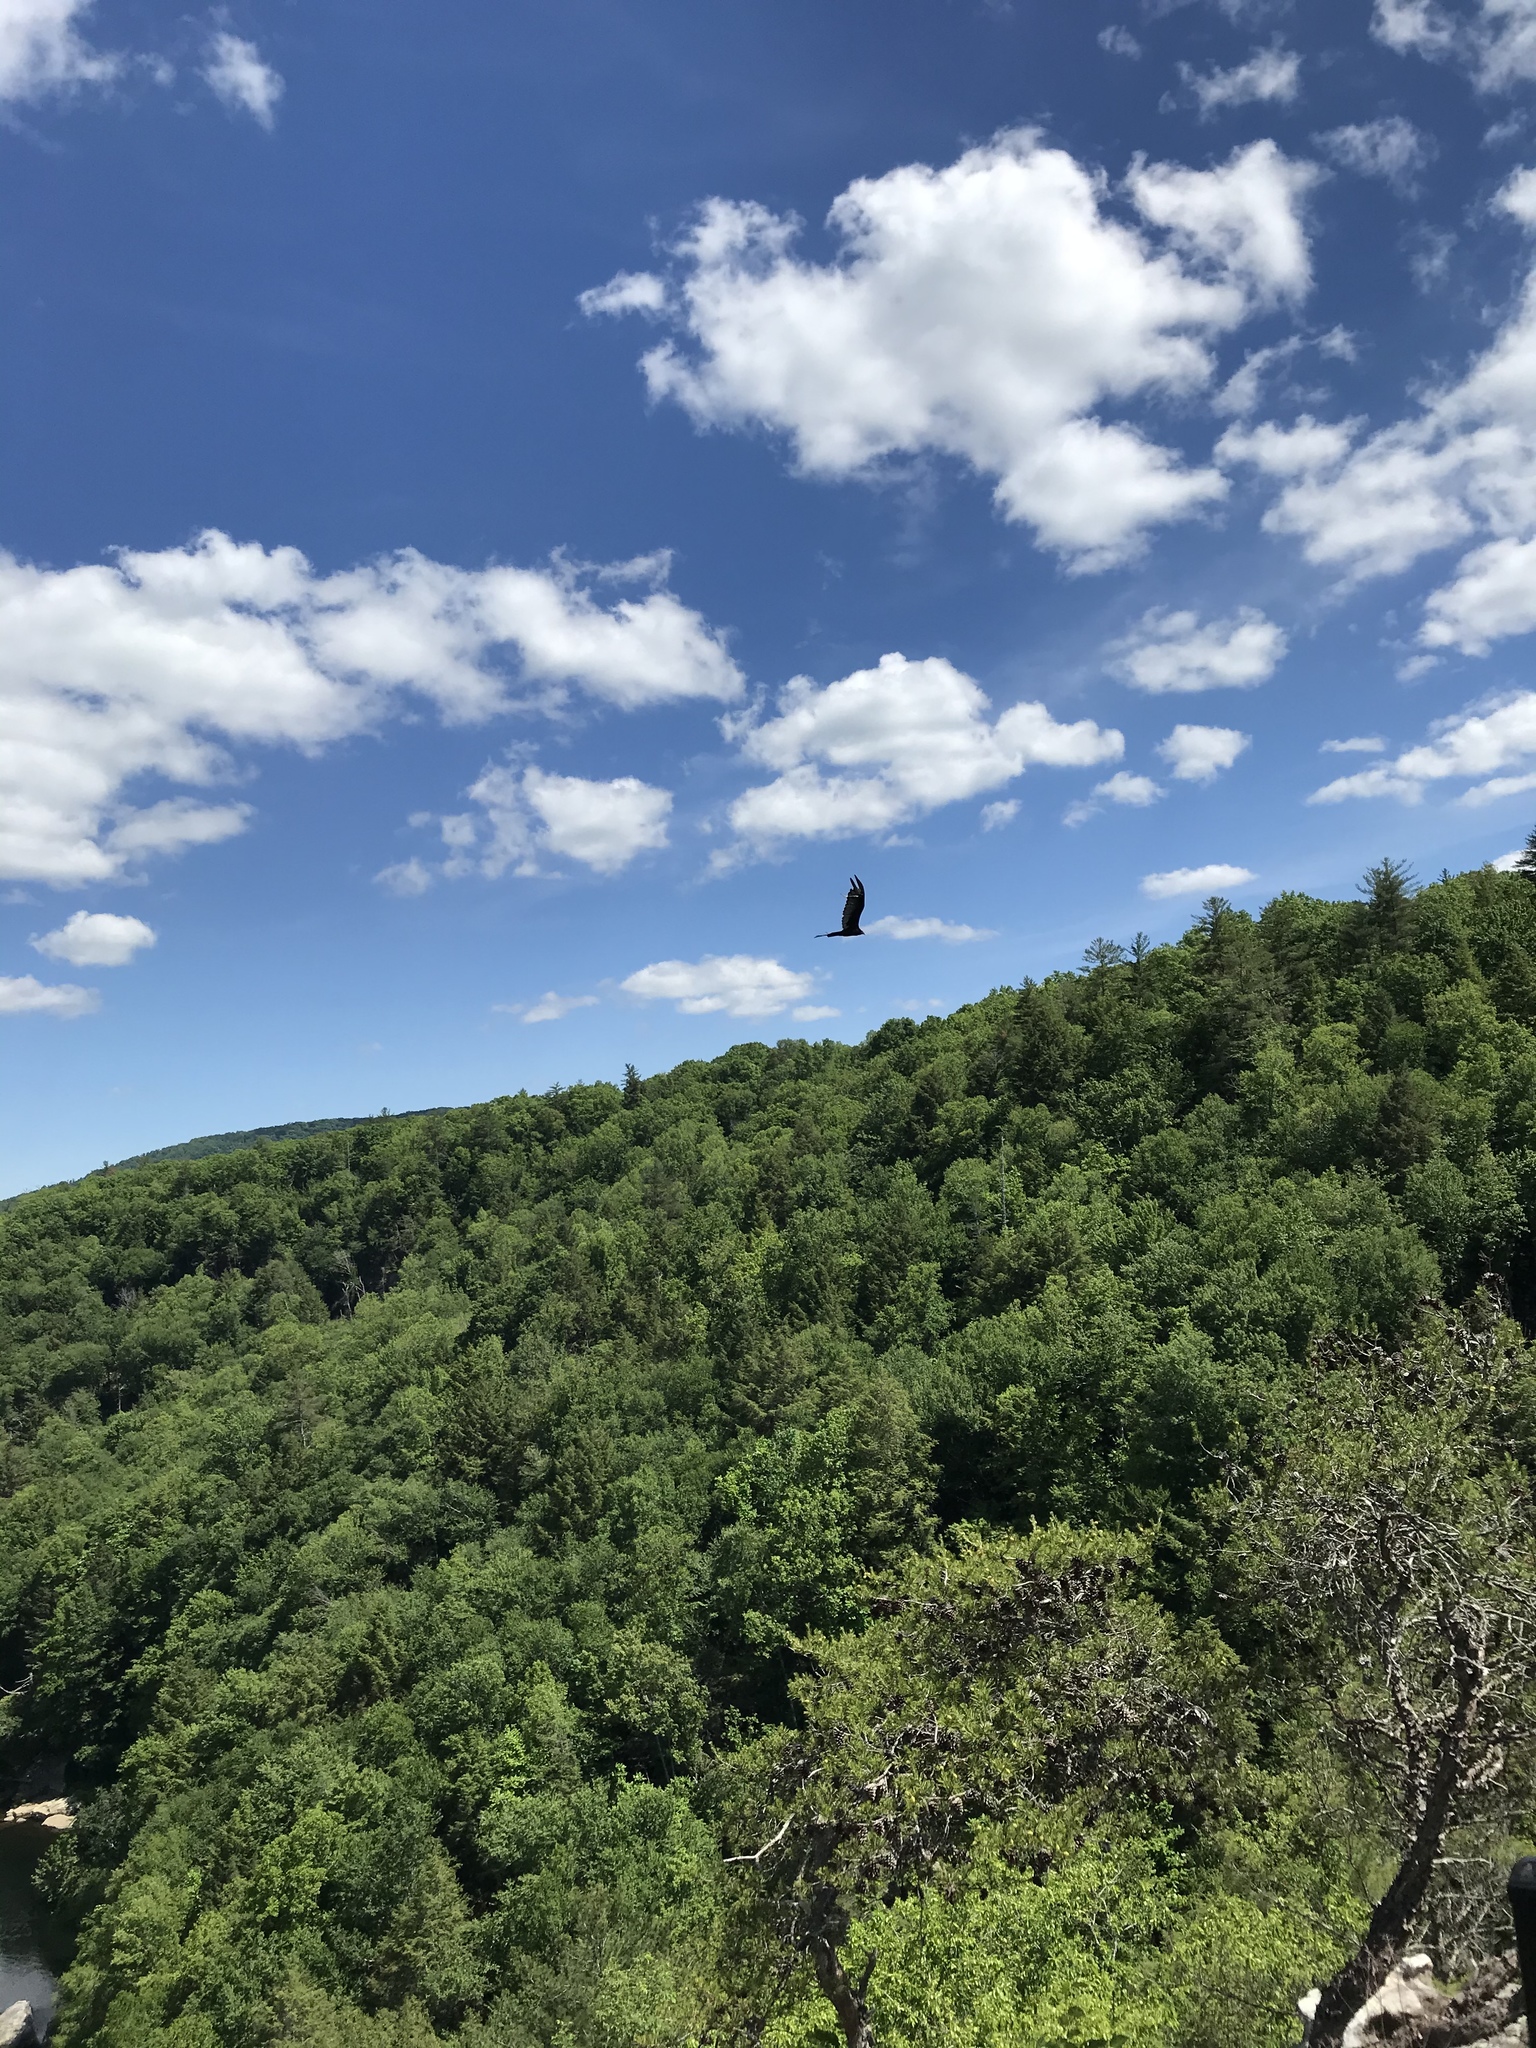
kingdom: Animalia
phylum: Chordata
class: Aves
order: Accipitriformes
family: Cathartidae
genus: Cathartes
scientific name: Cathartes aura
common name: Turkey vulture
